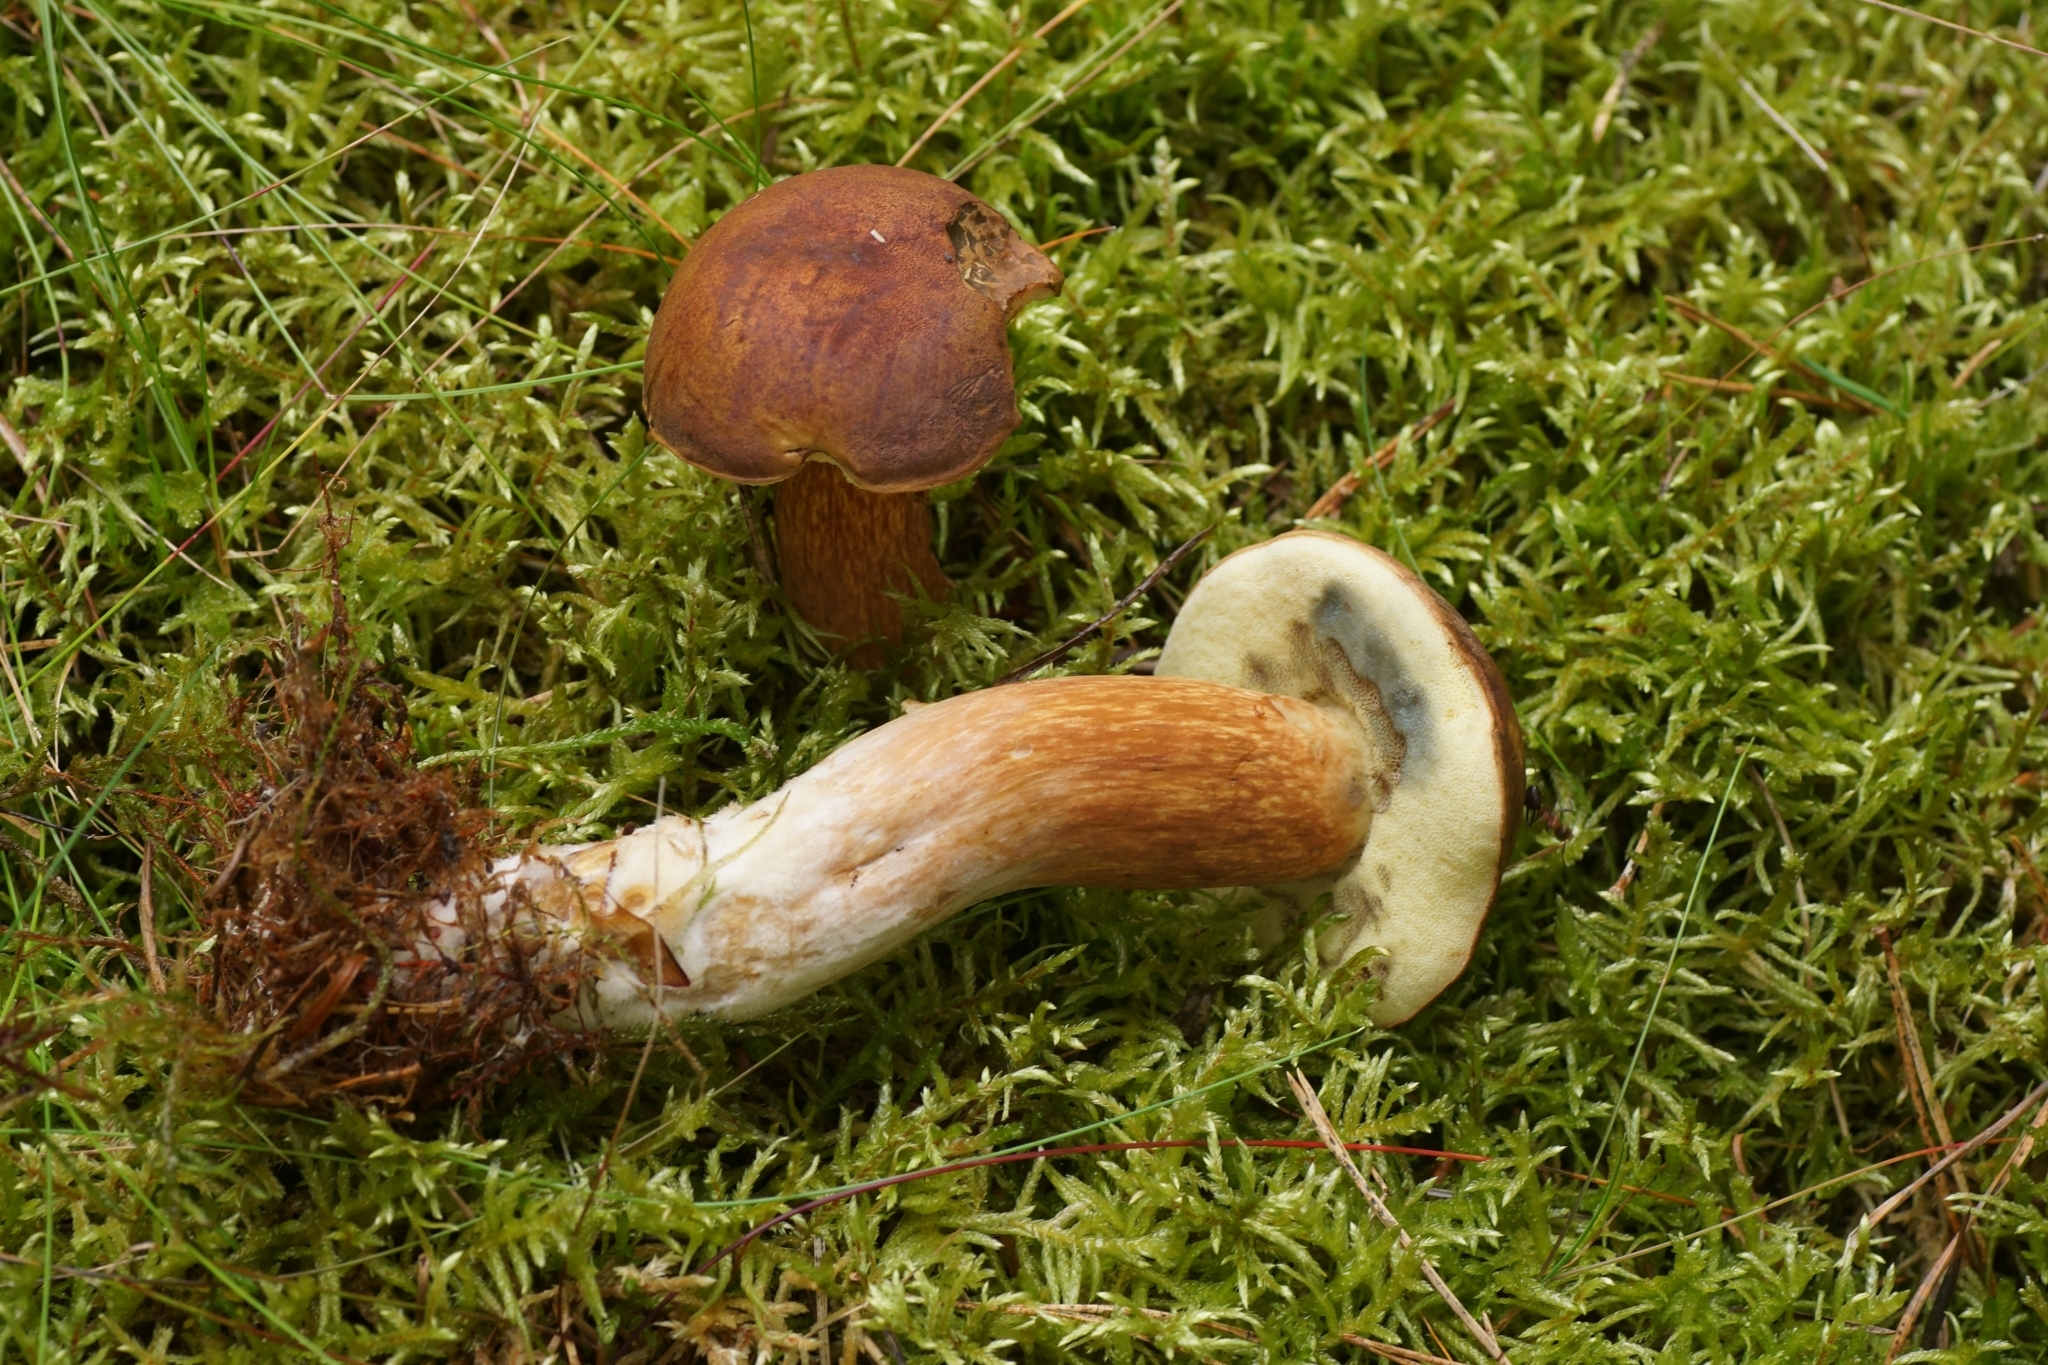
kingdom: Fungi
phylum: Basidiomycota
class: Agaricomycetes
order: Boletales
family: Boletaceae
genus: Imleria
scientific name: Imleria badia
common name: Bay bolete
